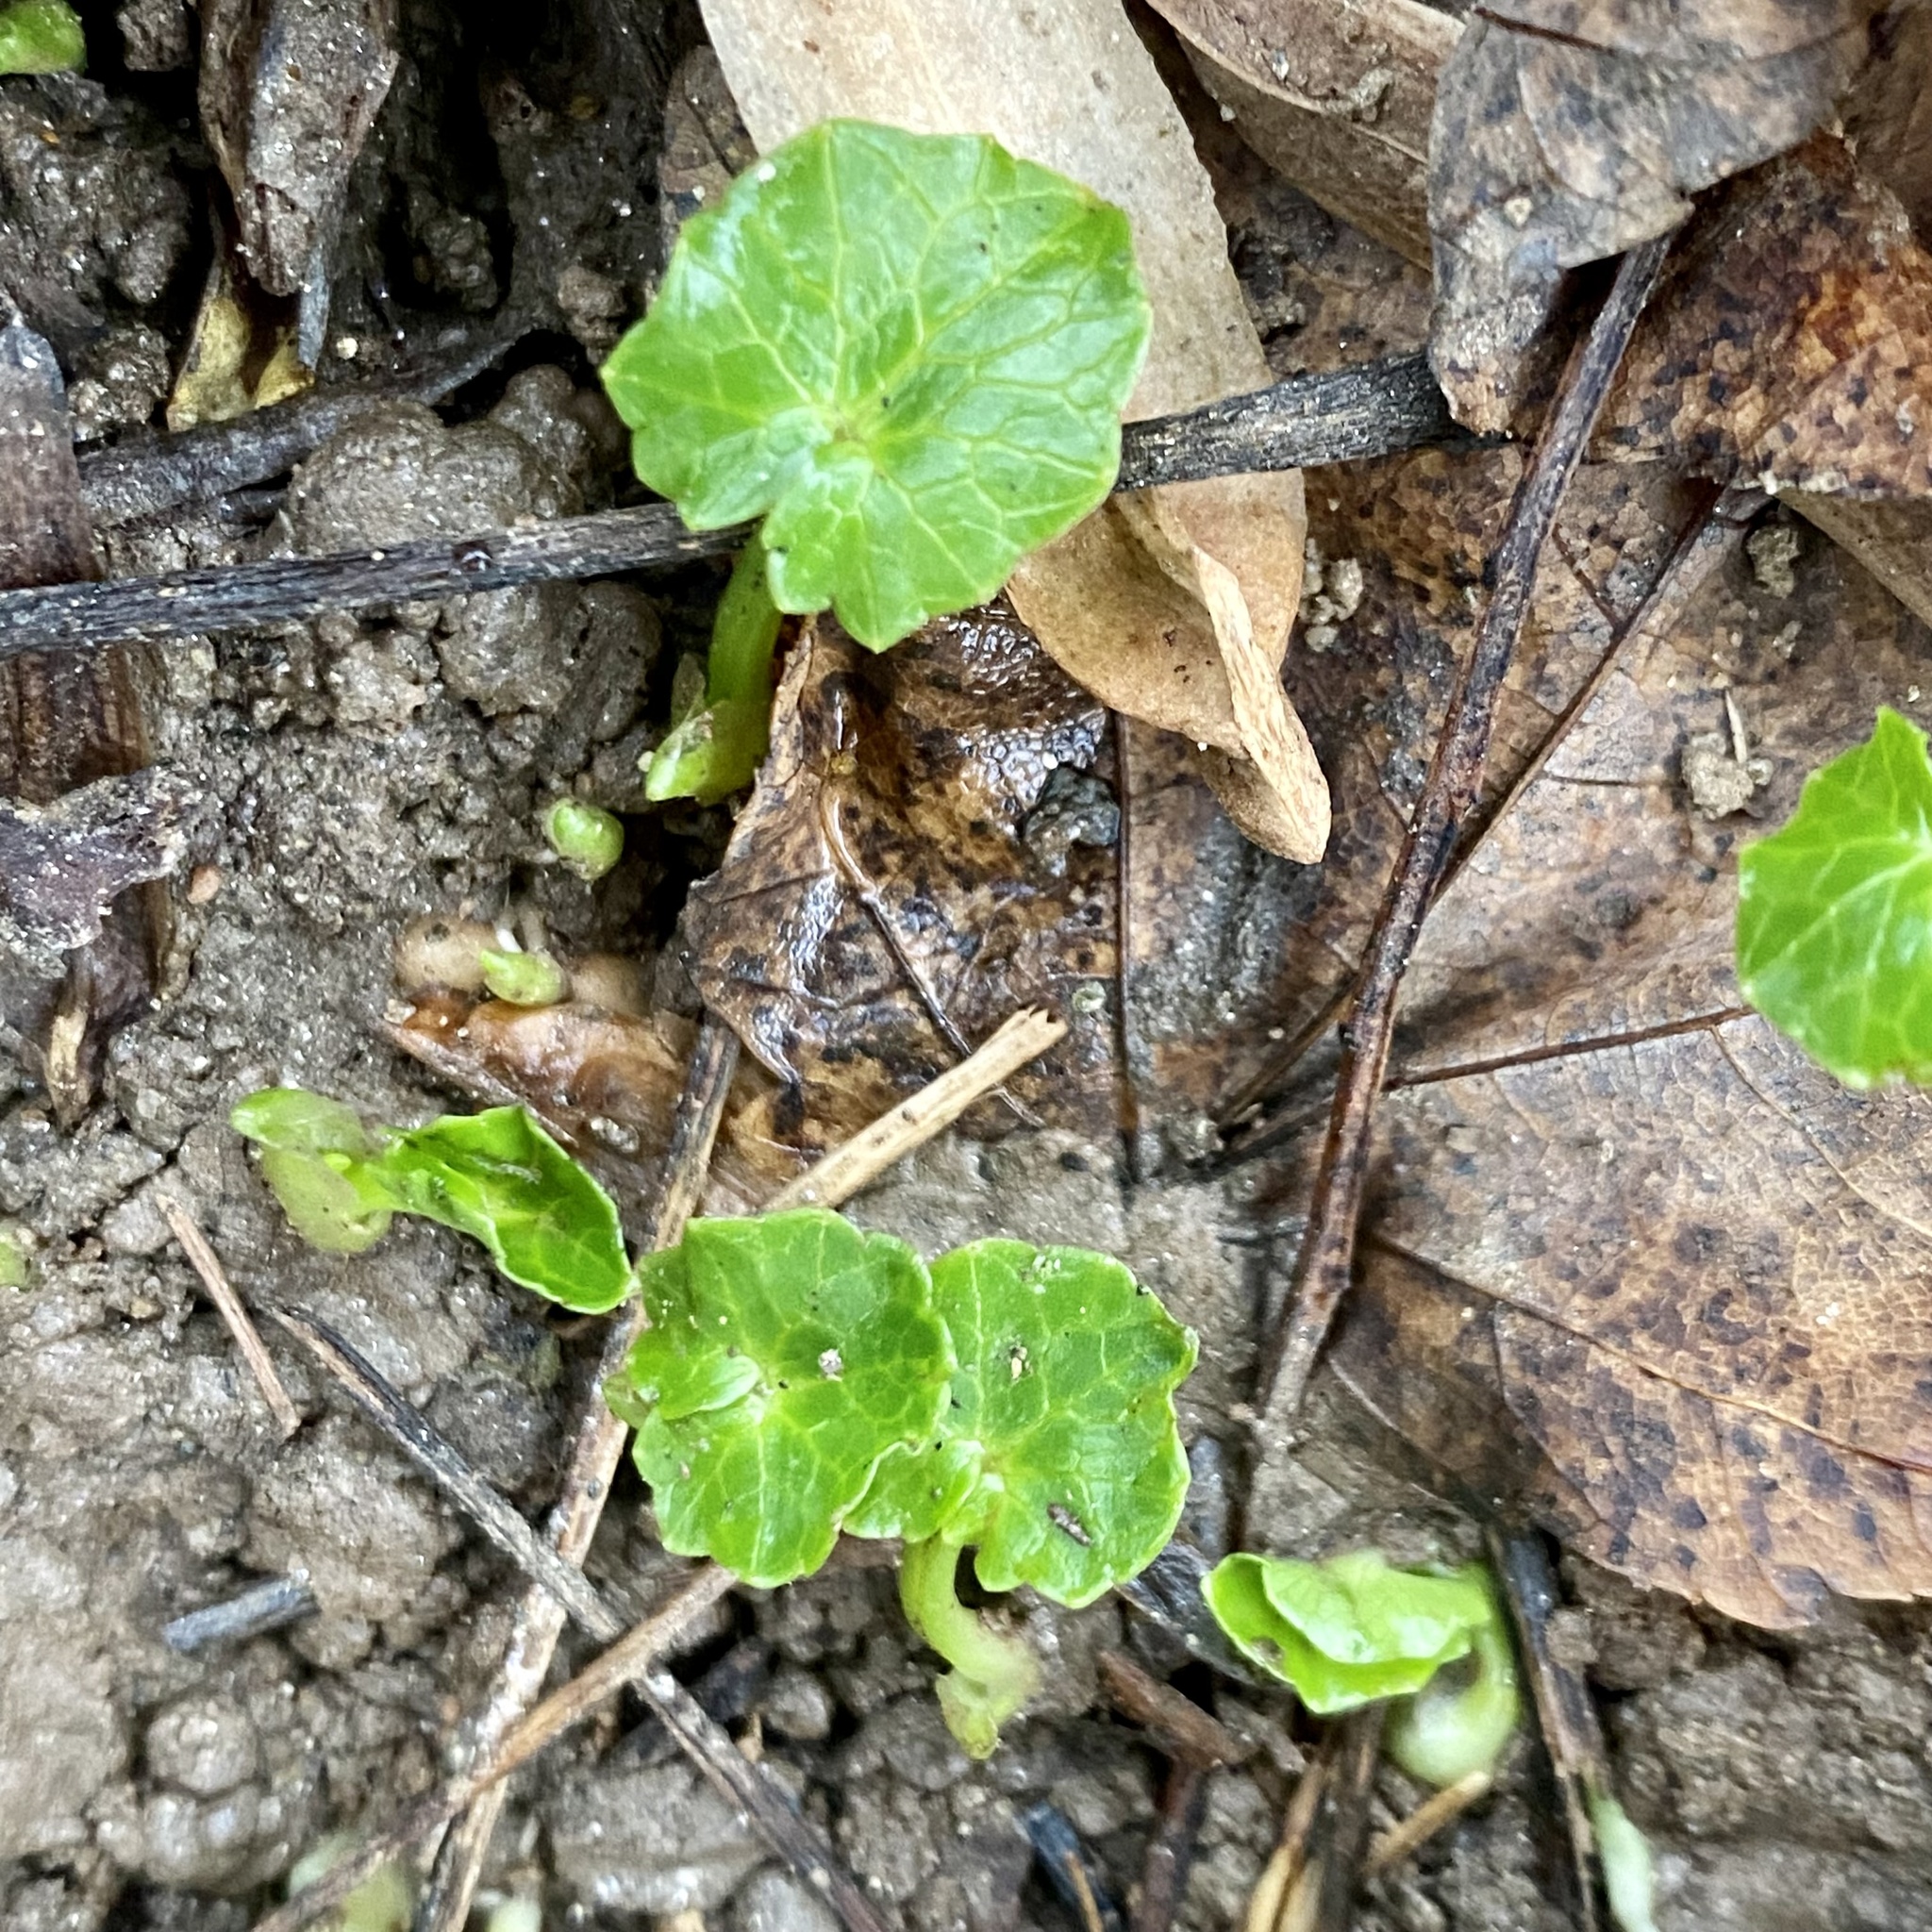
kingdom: Plantae
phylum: Tracheophyta
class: Magnoliopsida
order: Ranunculales
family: Ranunculaceae
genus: Ficaria
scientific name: Ficaria verna
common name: Lesser celandine
